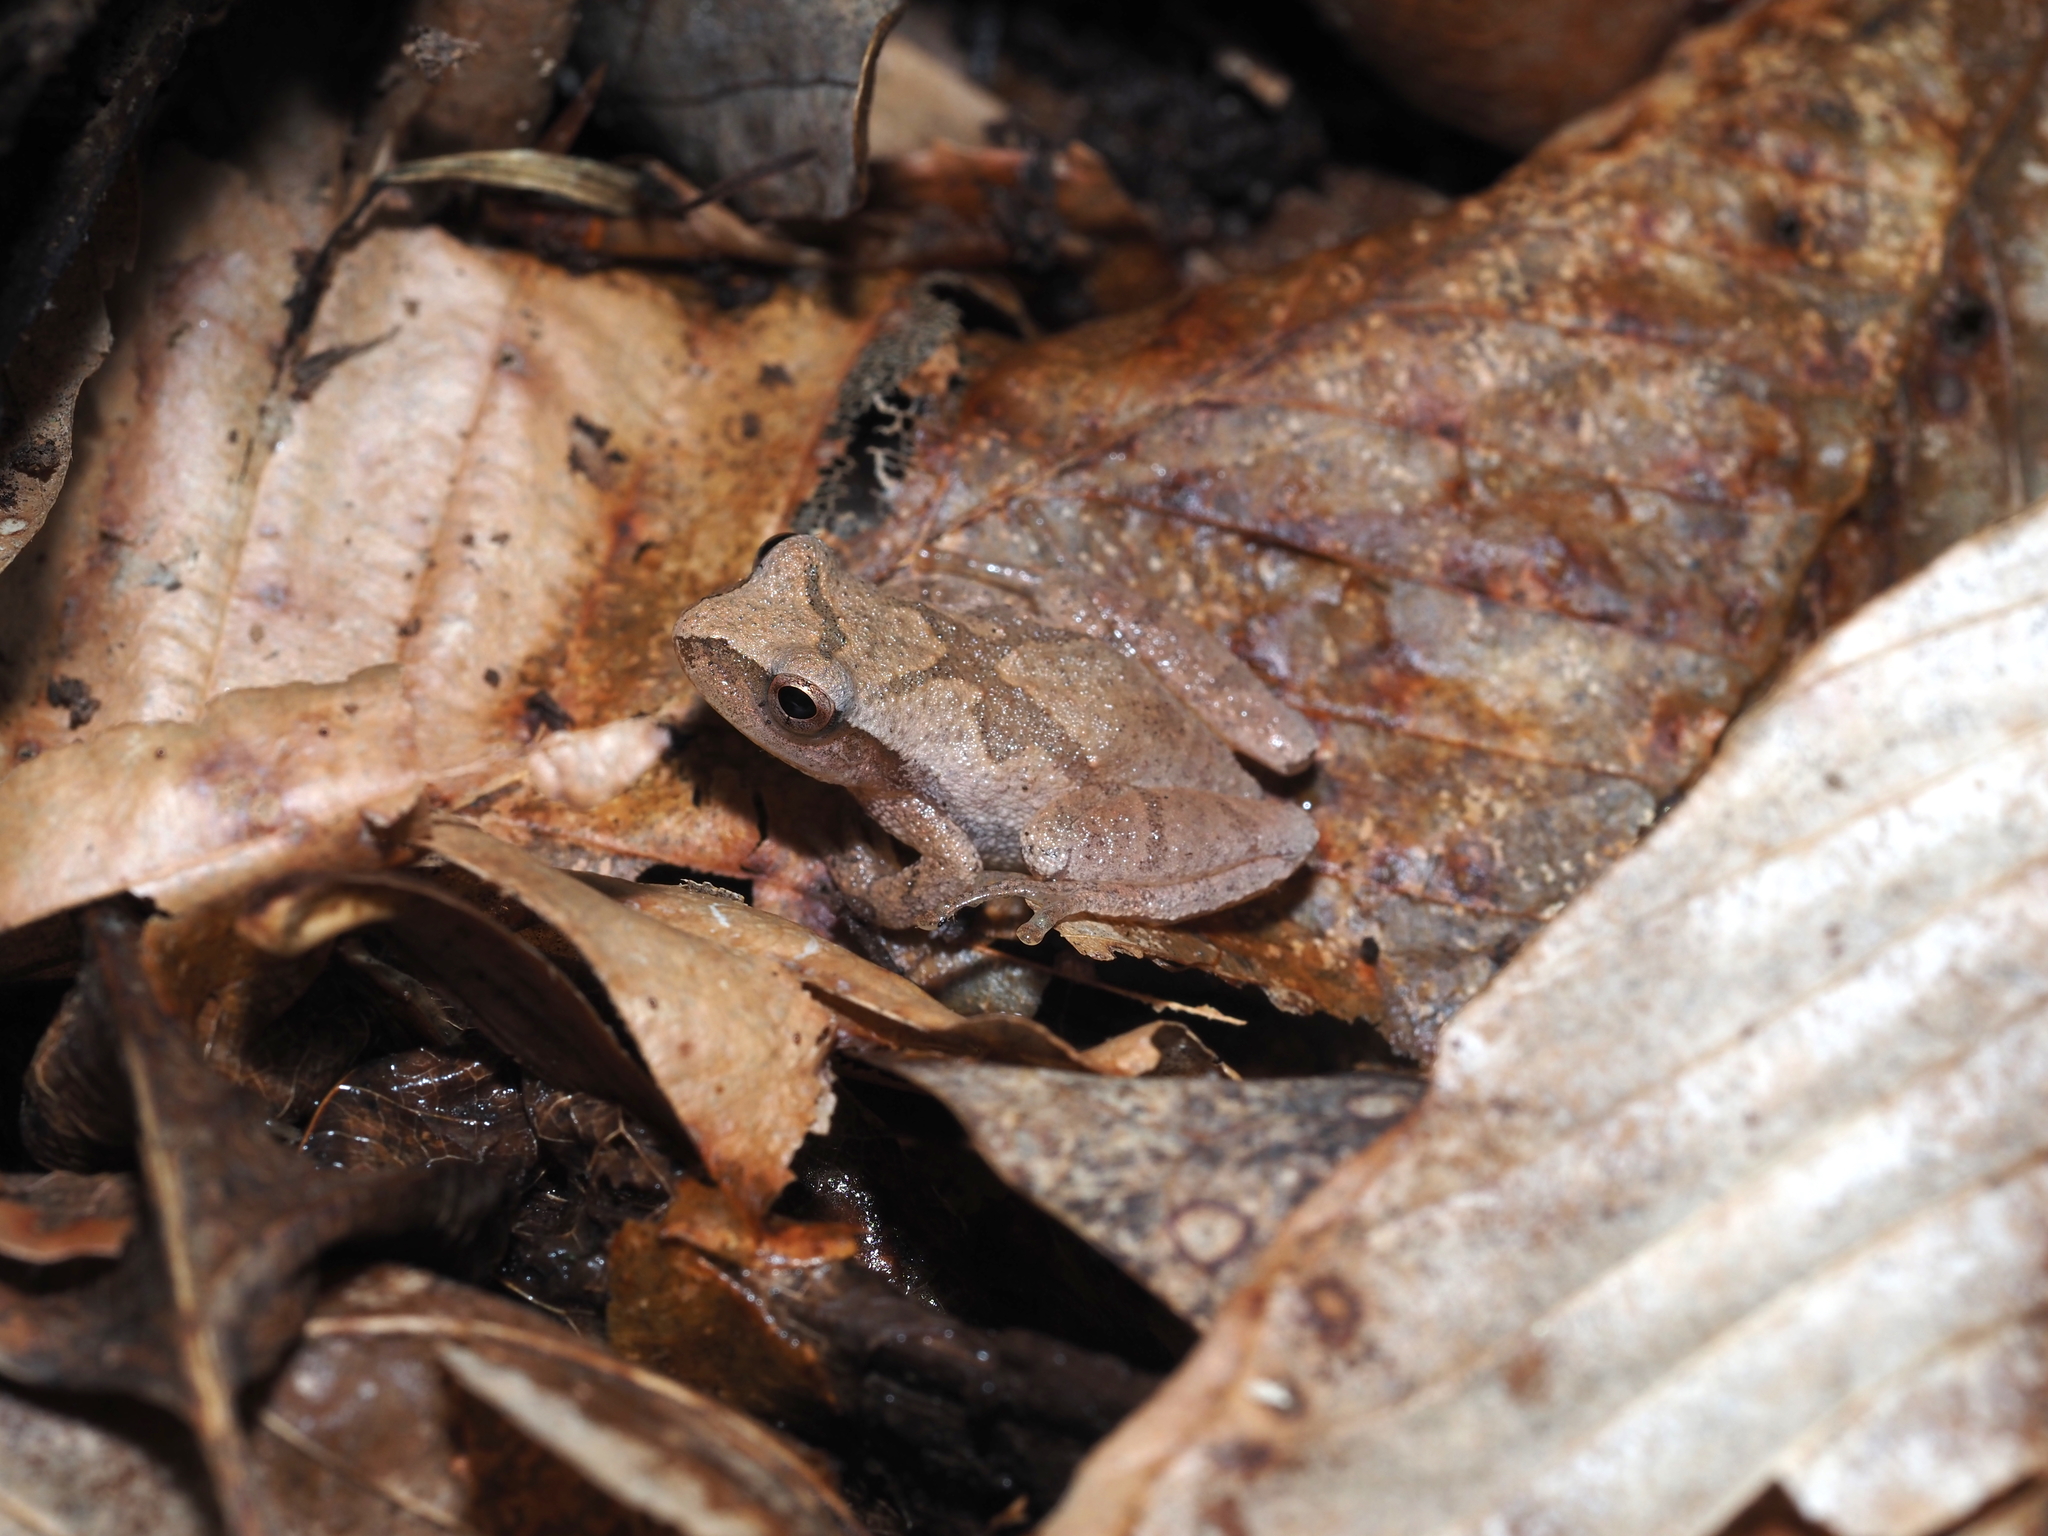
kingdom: Animalia
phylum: Chordata
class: Amphibia
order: Anura
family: Hylidae
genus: Pseudacris
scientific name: Pseudacris crucifer
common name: Spring peeper
